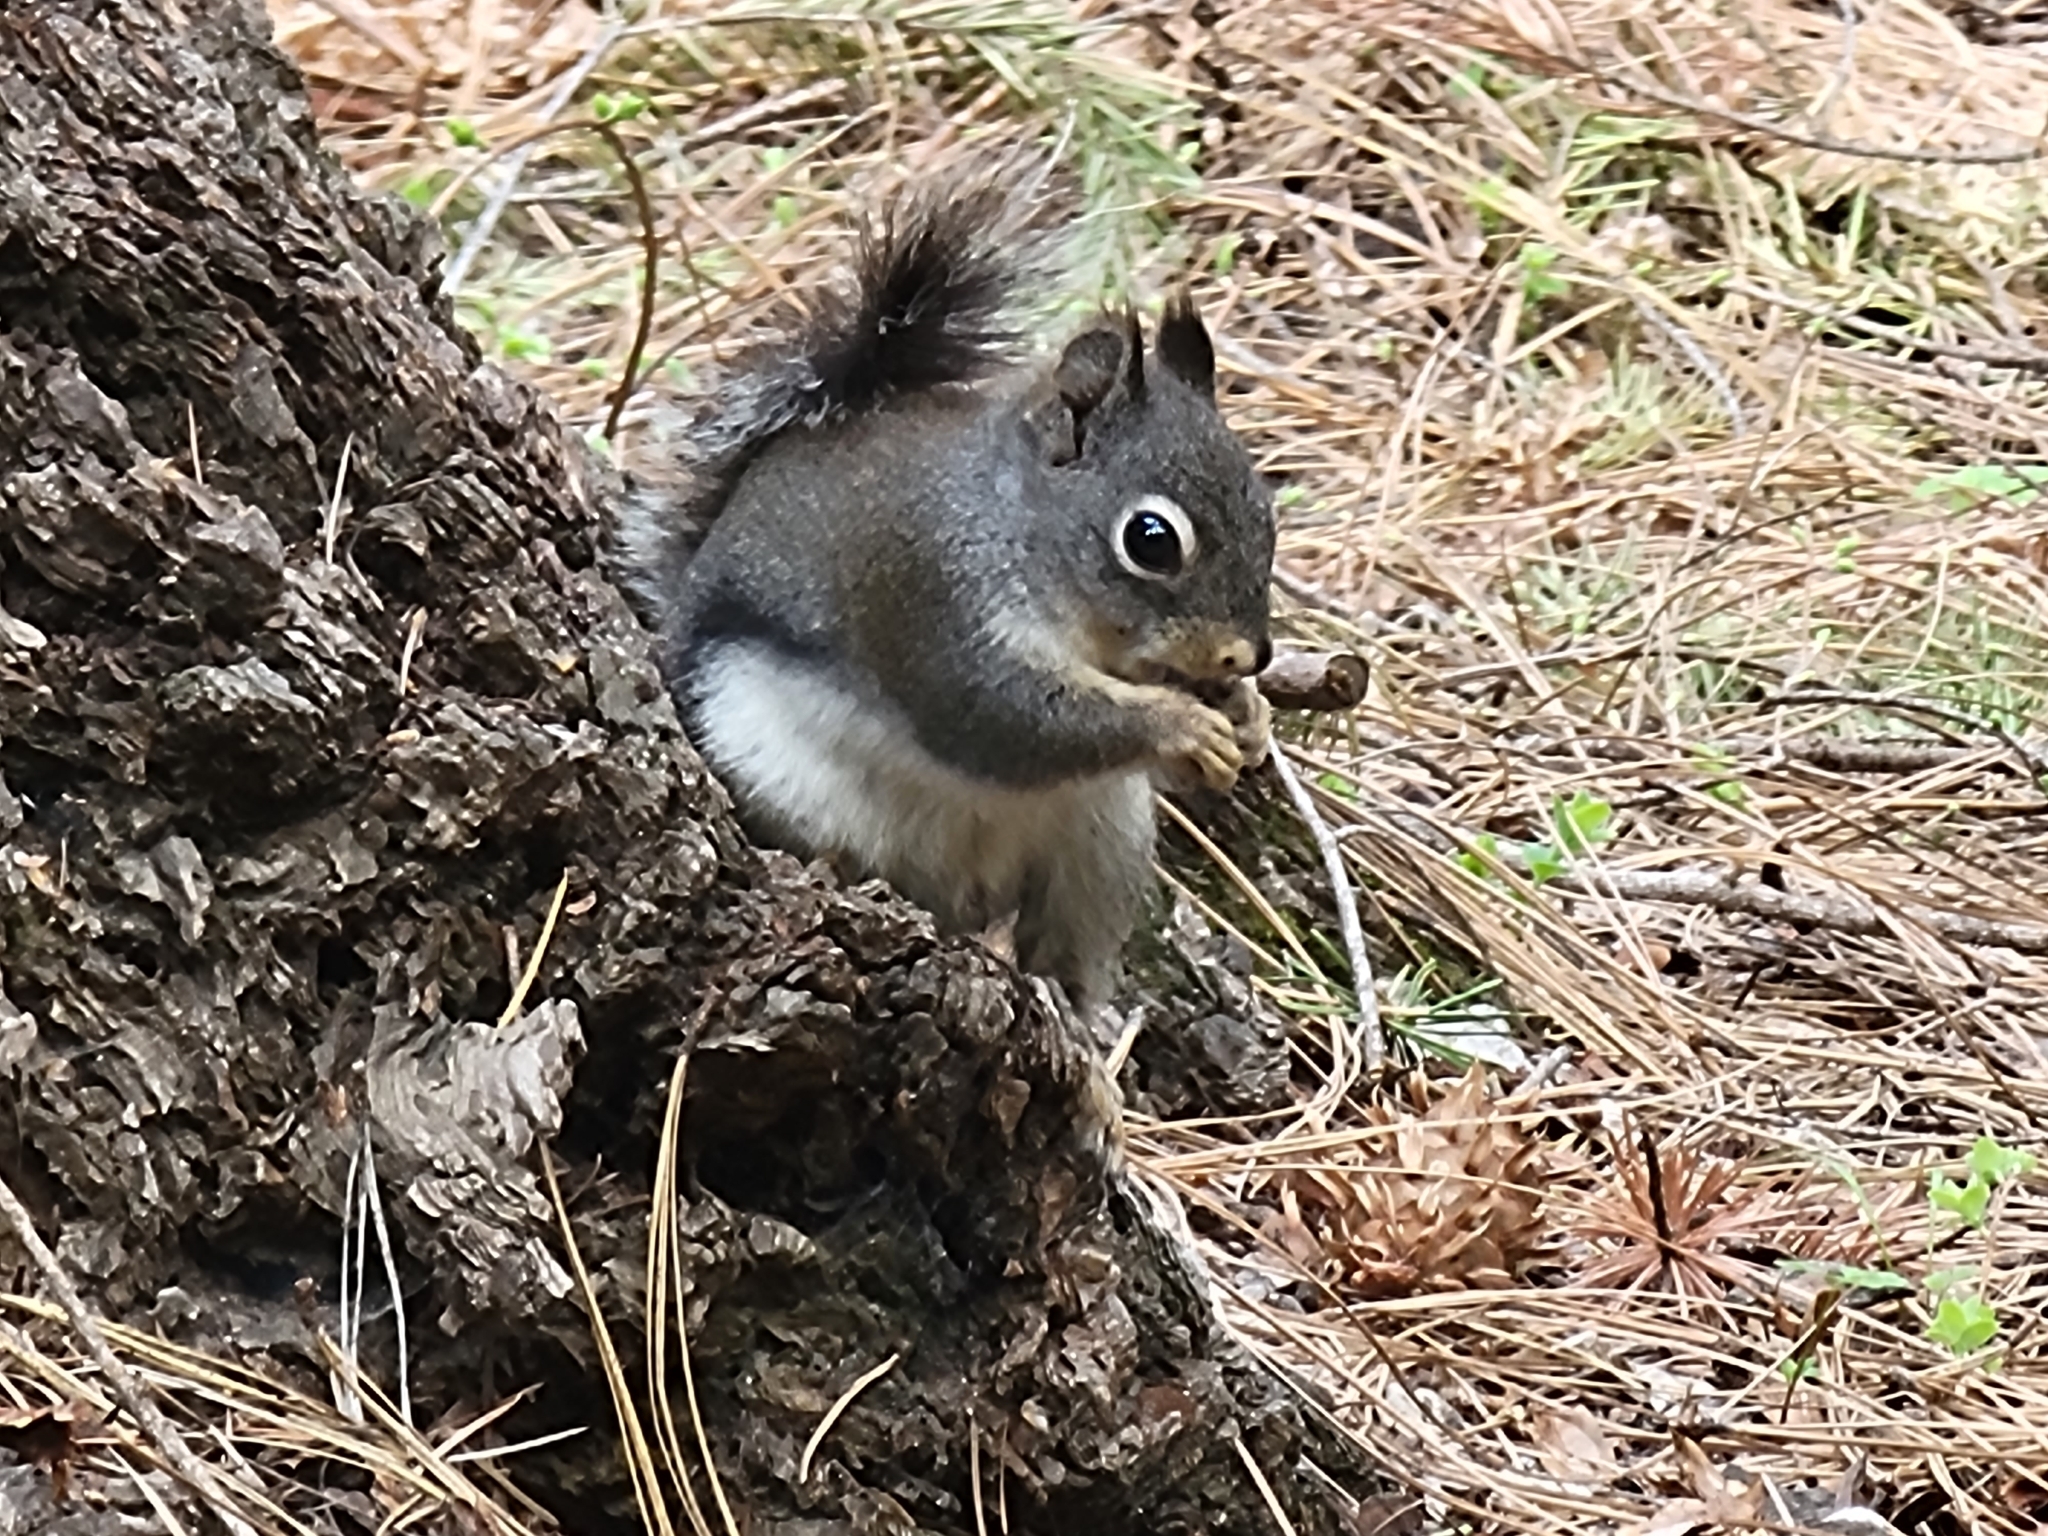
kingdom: Animalia
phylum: Chordata
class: Mammalia
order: Rodentia
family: Sciuridae
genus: Tamiasciurus
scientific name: Tamiasciurus douglasii
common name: Douglas's squirrel
